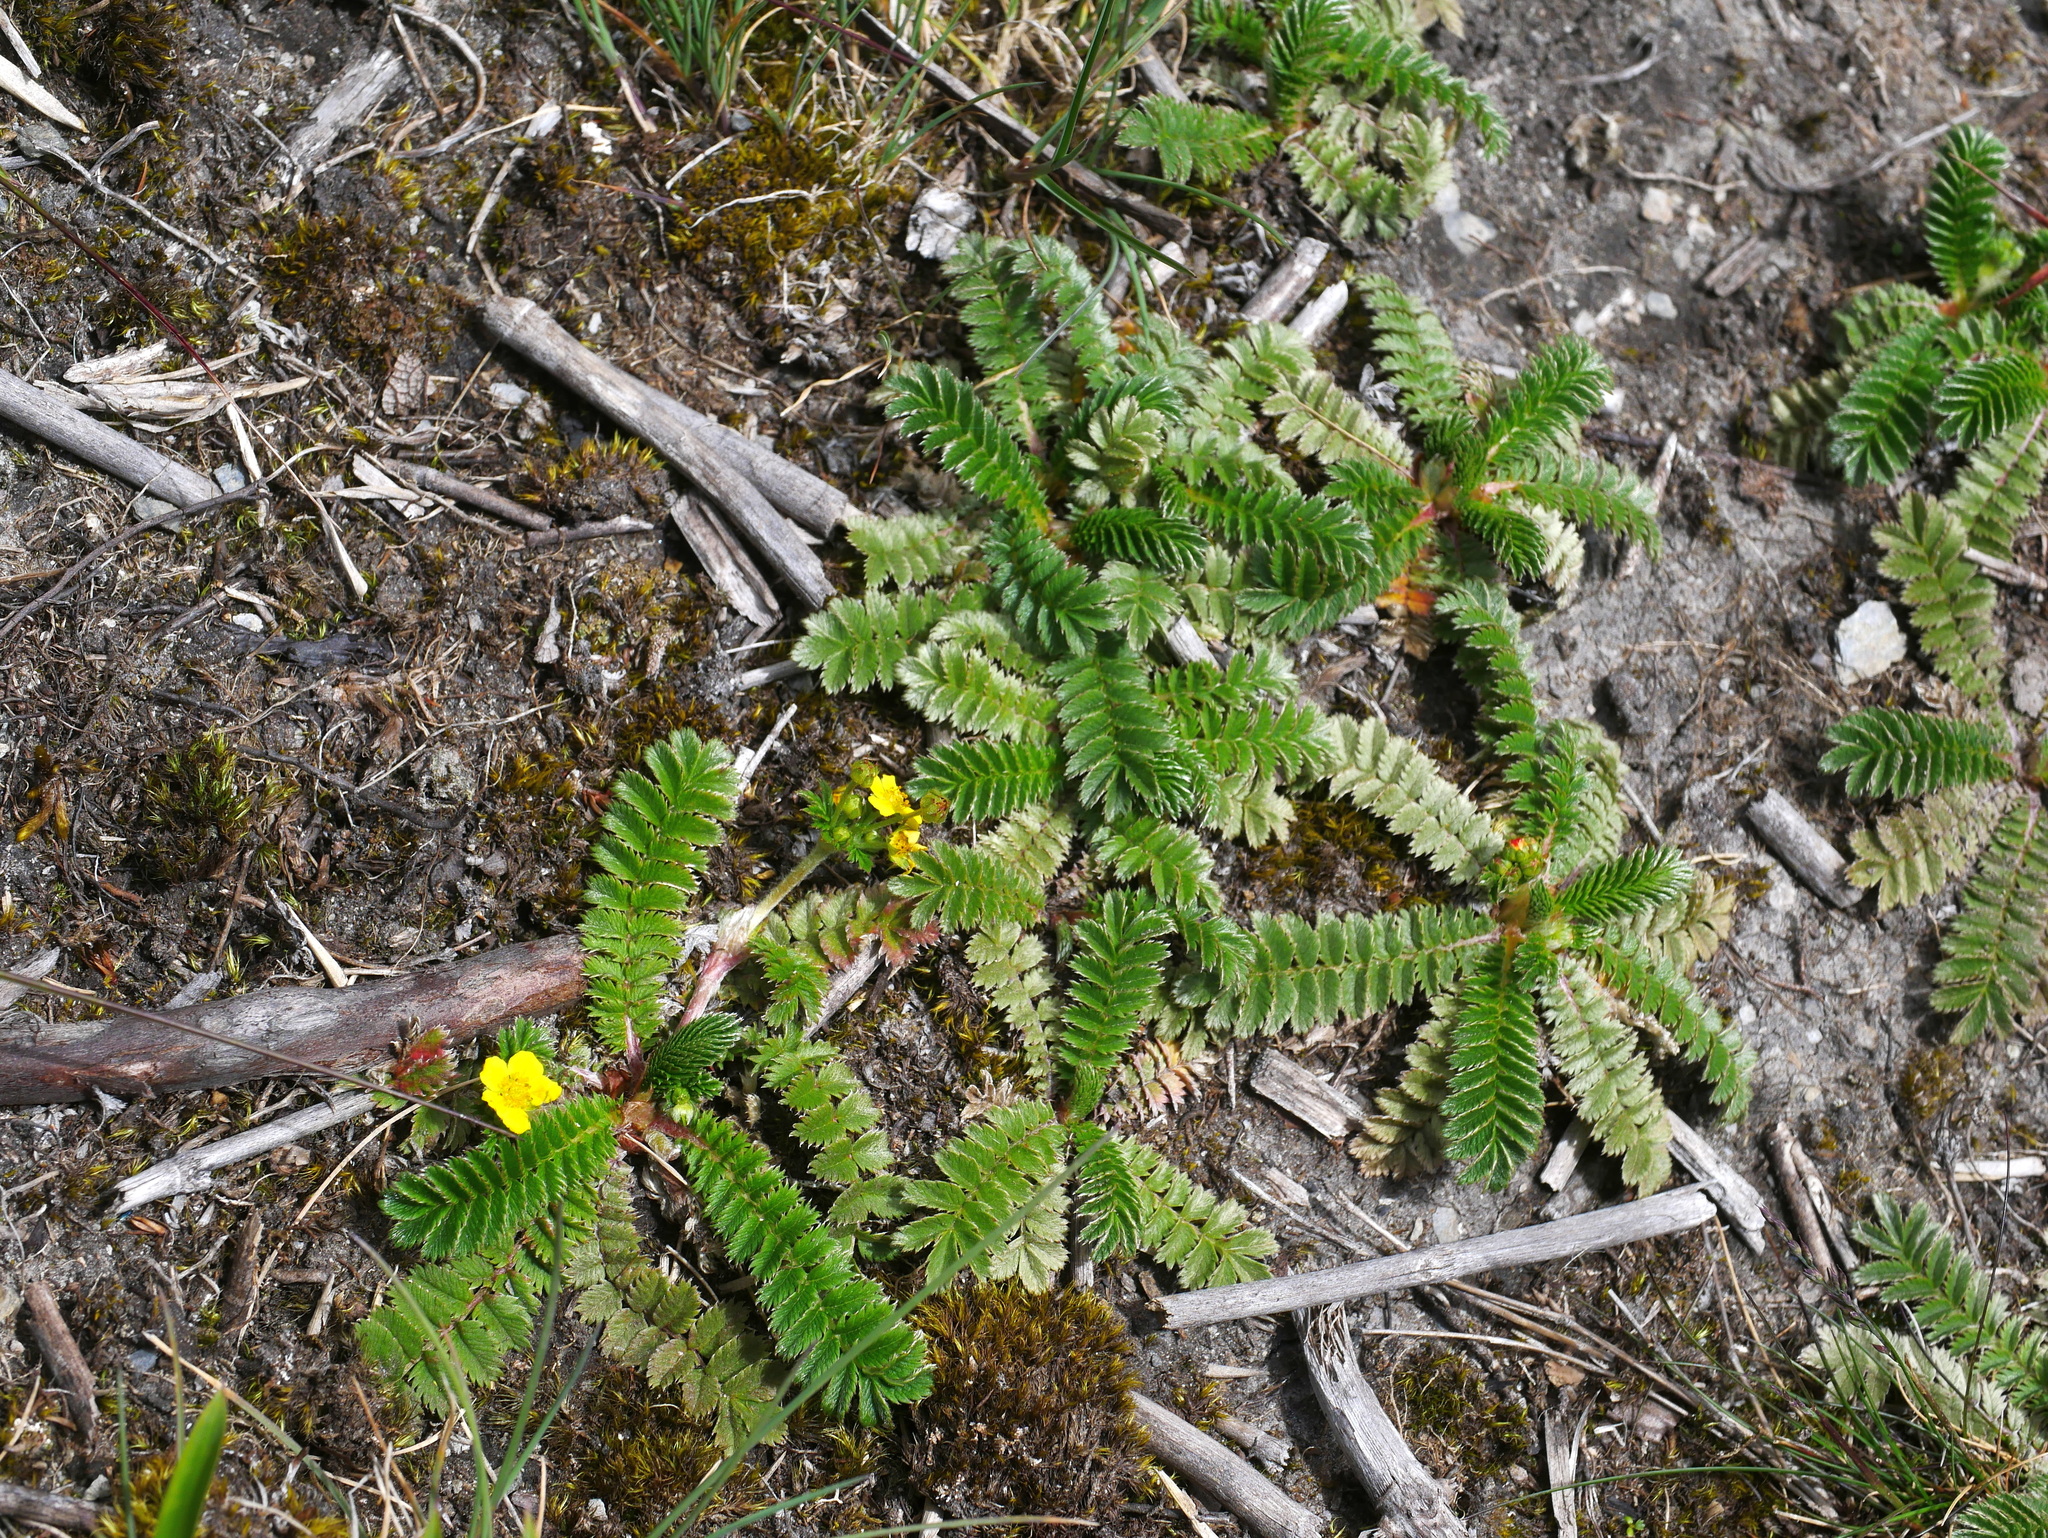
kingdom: Plantae
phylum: Tracheophyta
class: Magnoliopsida
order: Rosales
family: Rosaceae
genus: Argentina
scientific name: Argentina leuconota
